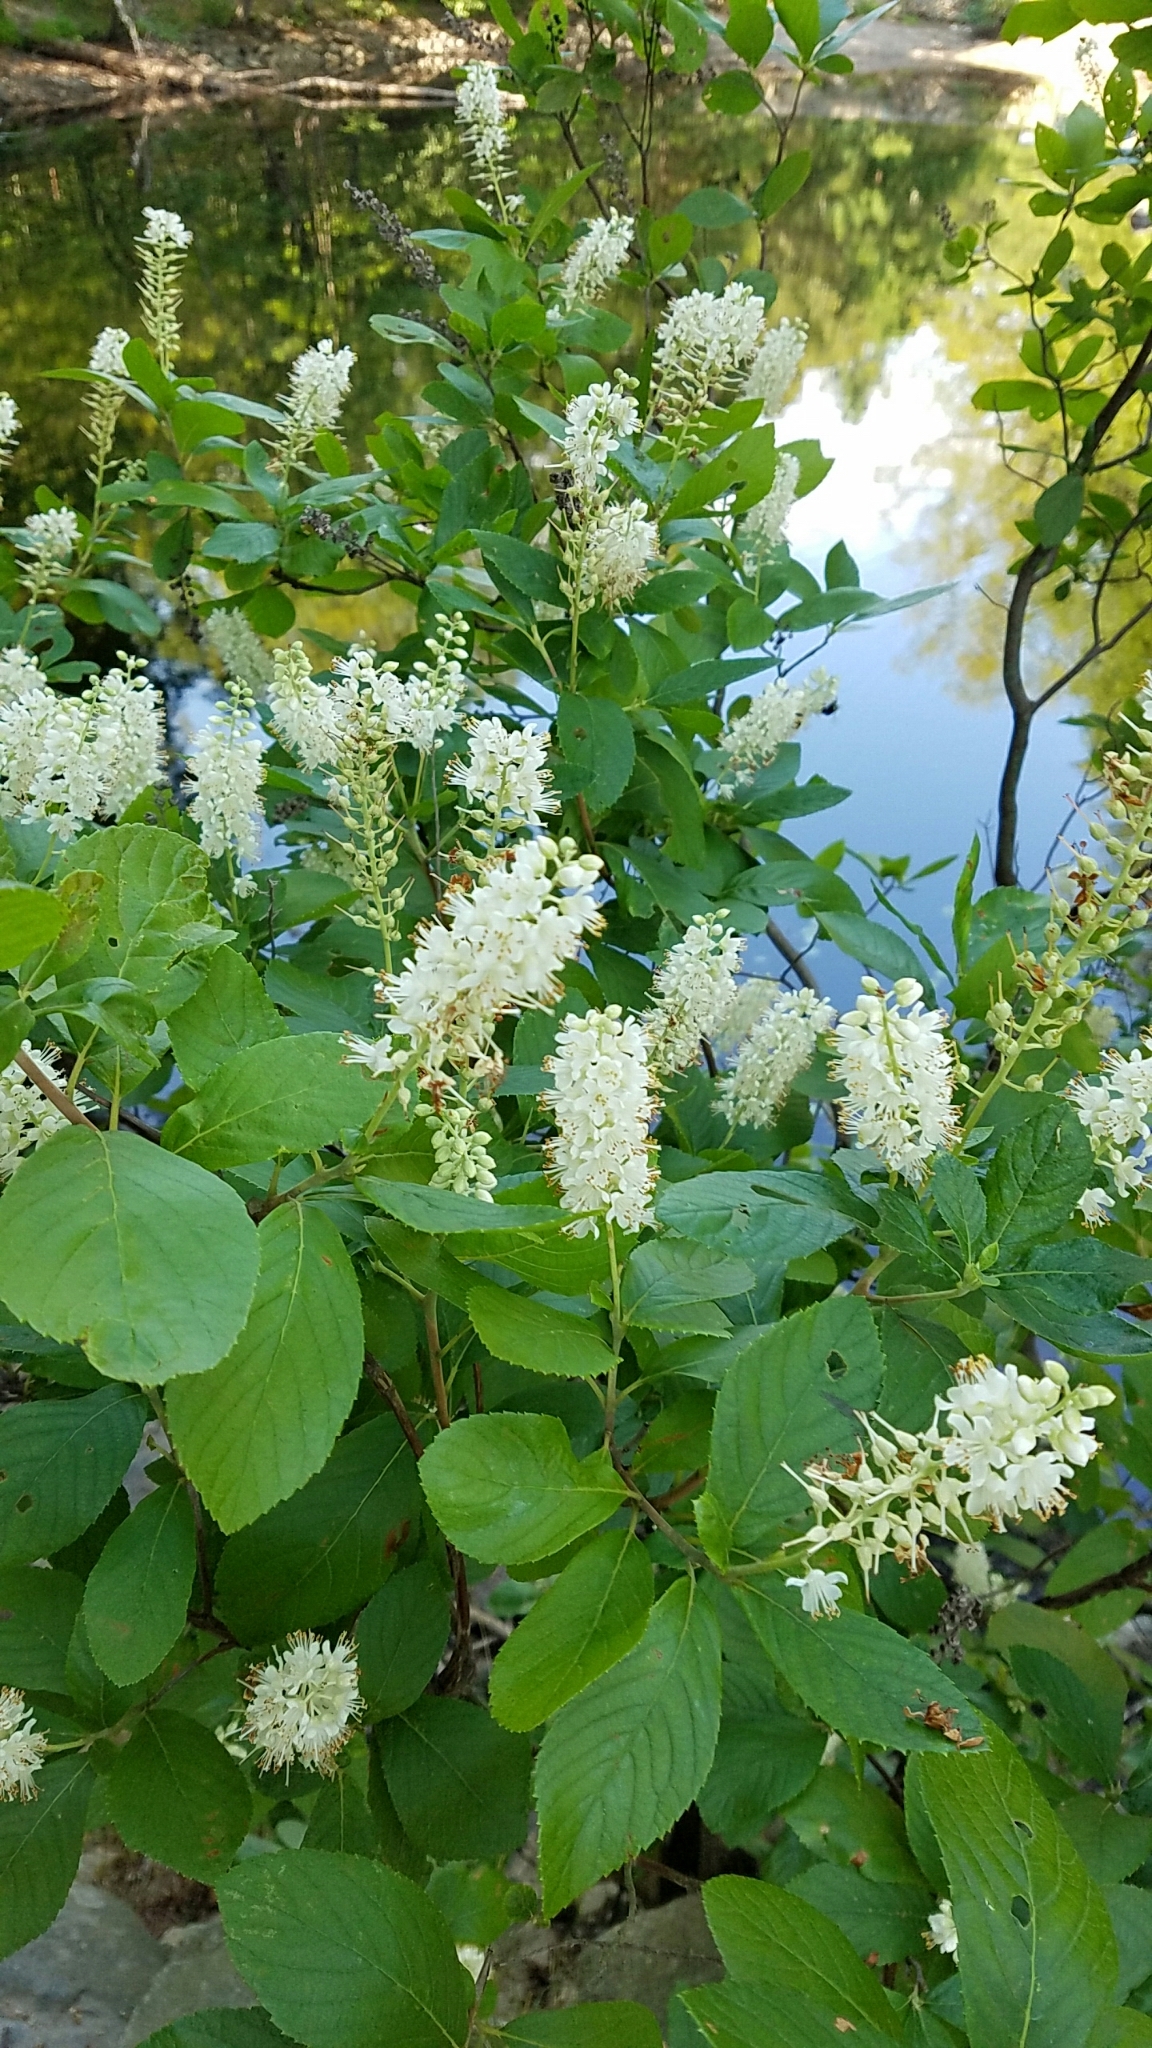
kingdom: Plantae
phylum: Tracheophyta
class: Magnoliopsida
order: Ericales
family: Clethraceae
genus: Clethra
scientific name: Clethra alnifolia
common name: Sweet pepperbush
